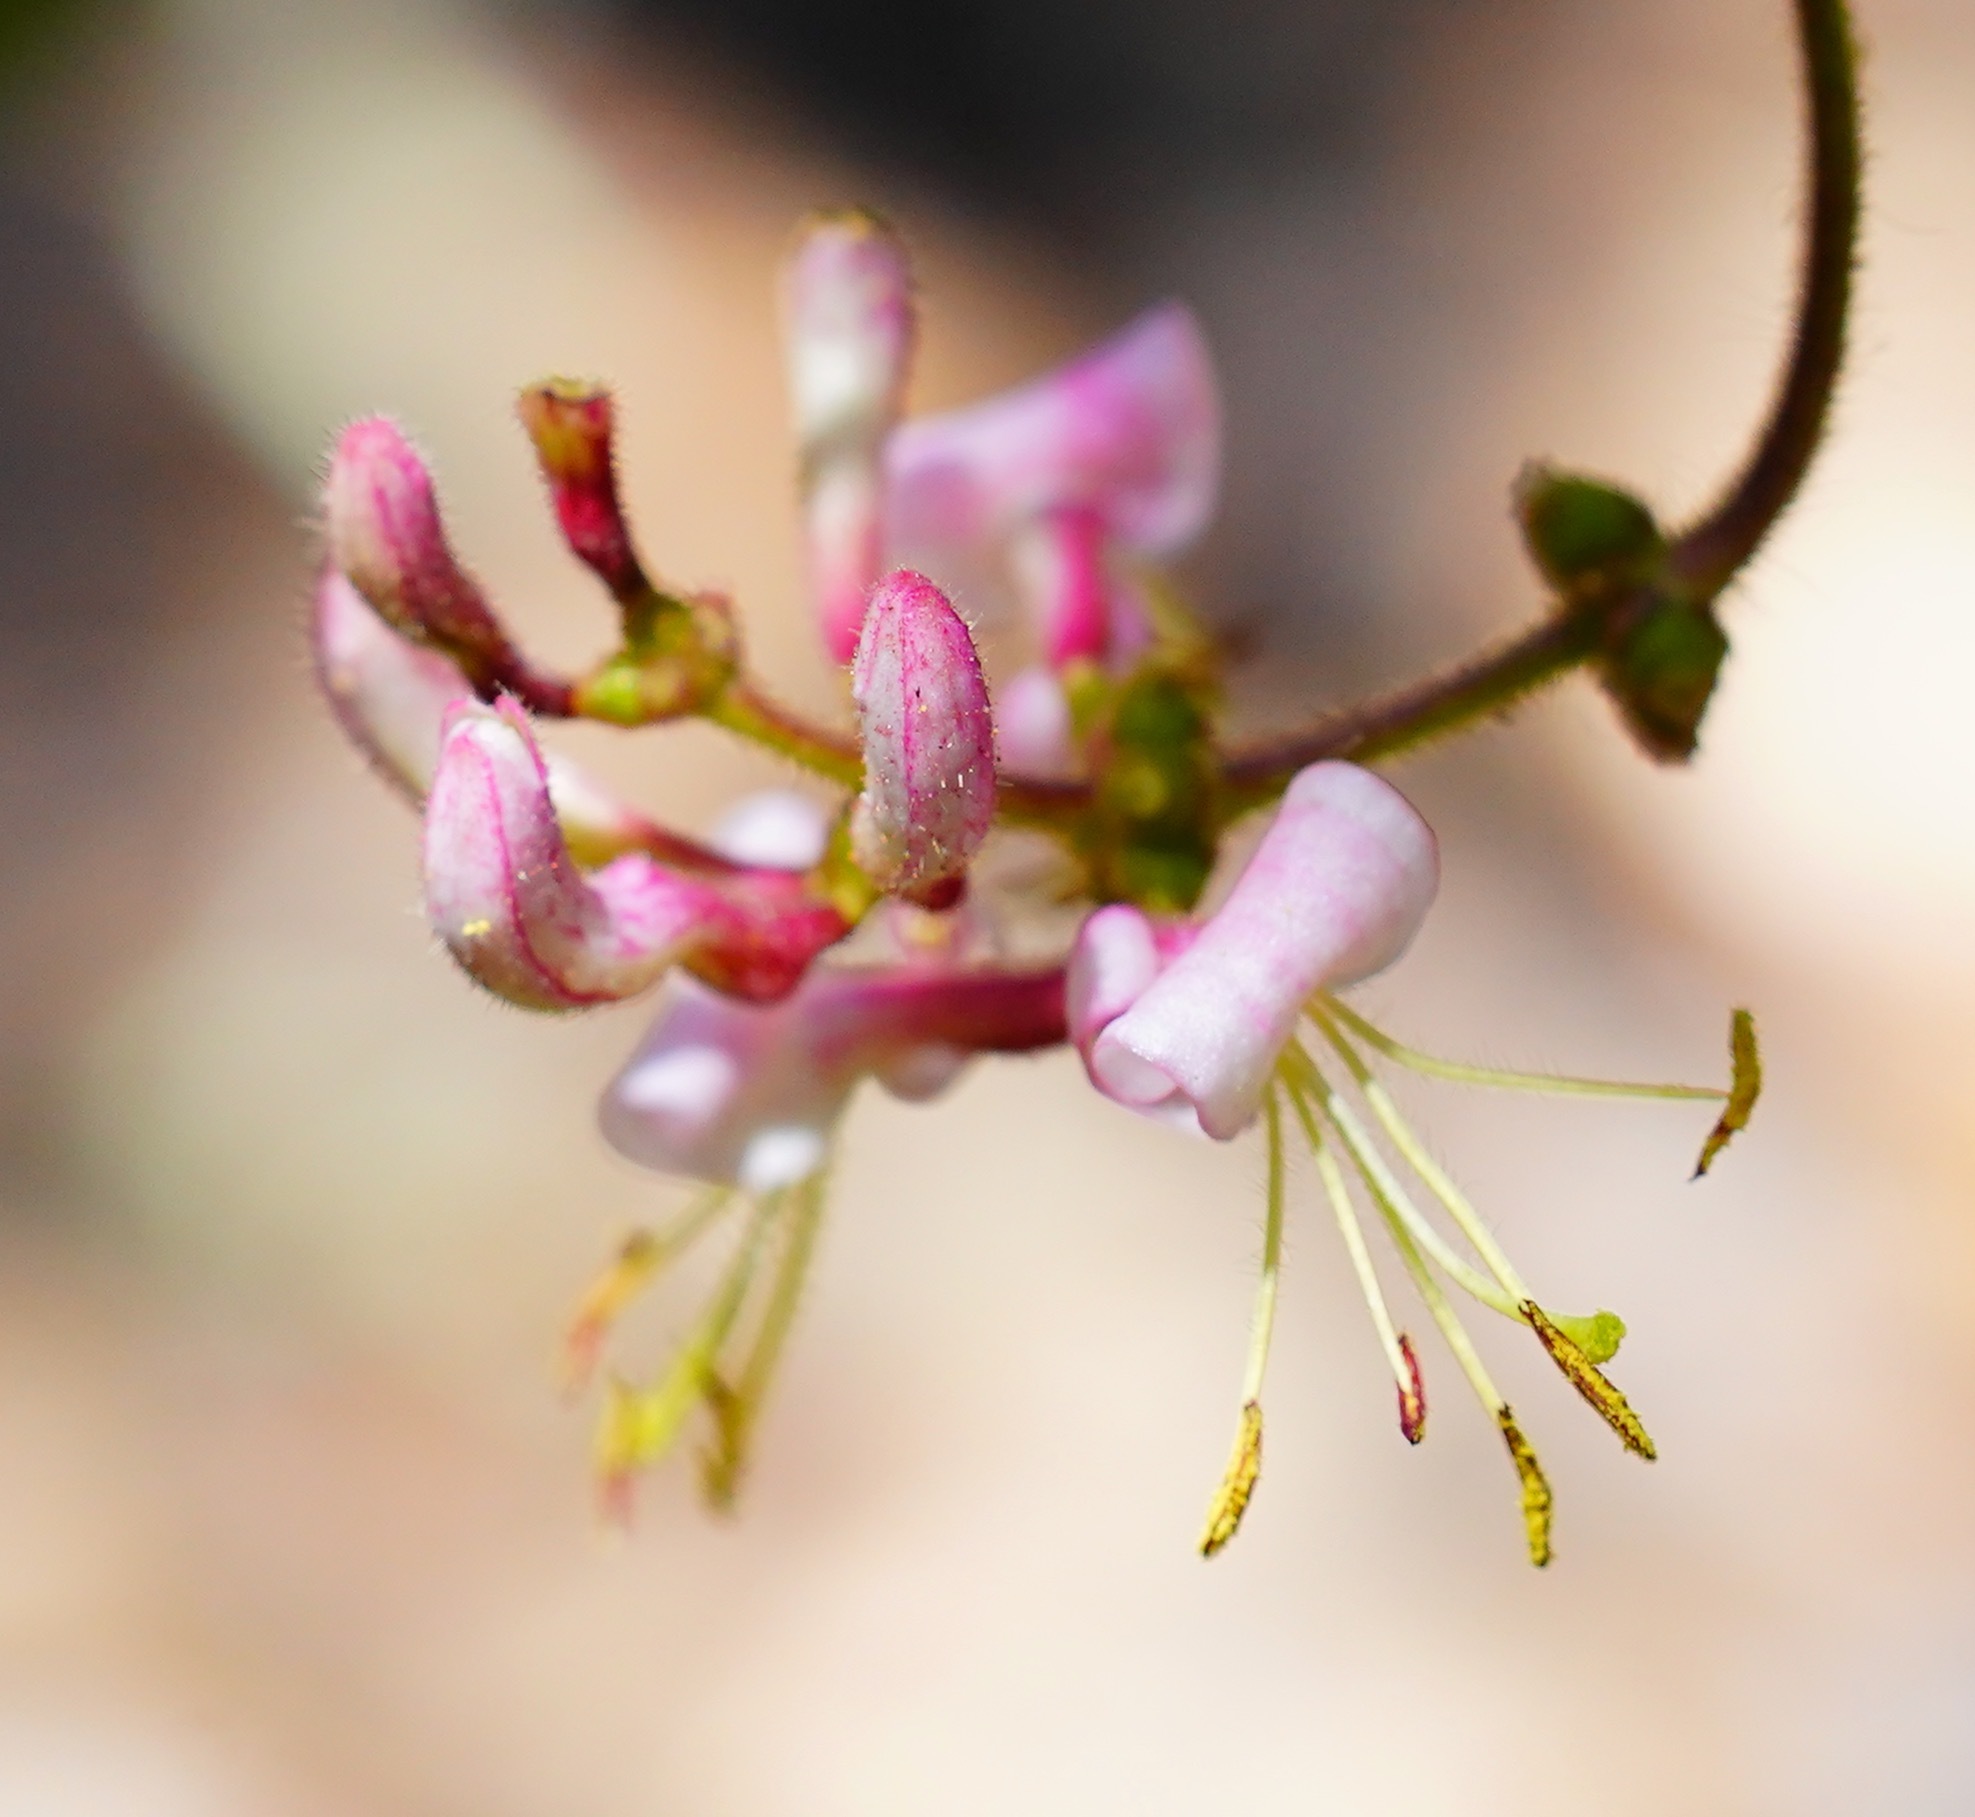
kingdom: Plantae
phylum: Tracheophyta
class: Magnoliopsida
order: Dipsacales
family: Caprifoliaceae
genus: Lonicera
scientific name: Lonicera hispidula
